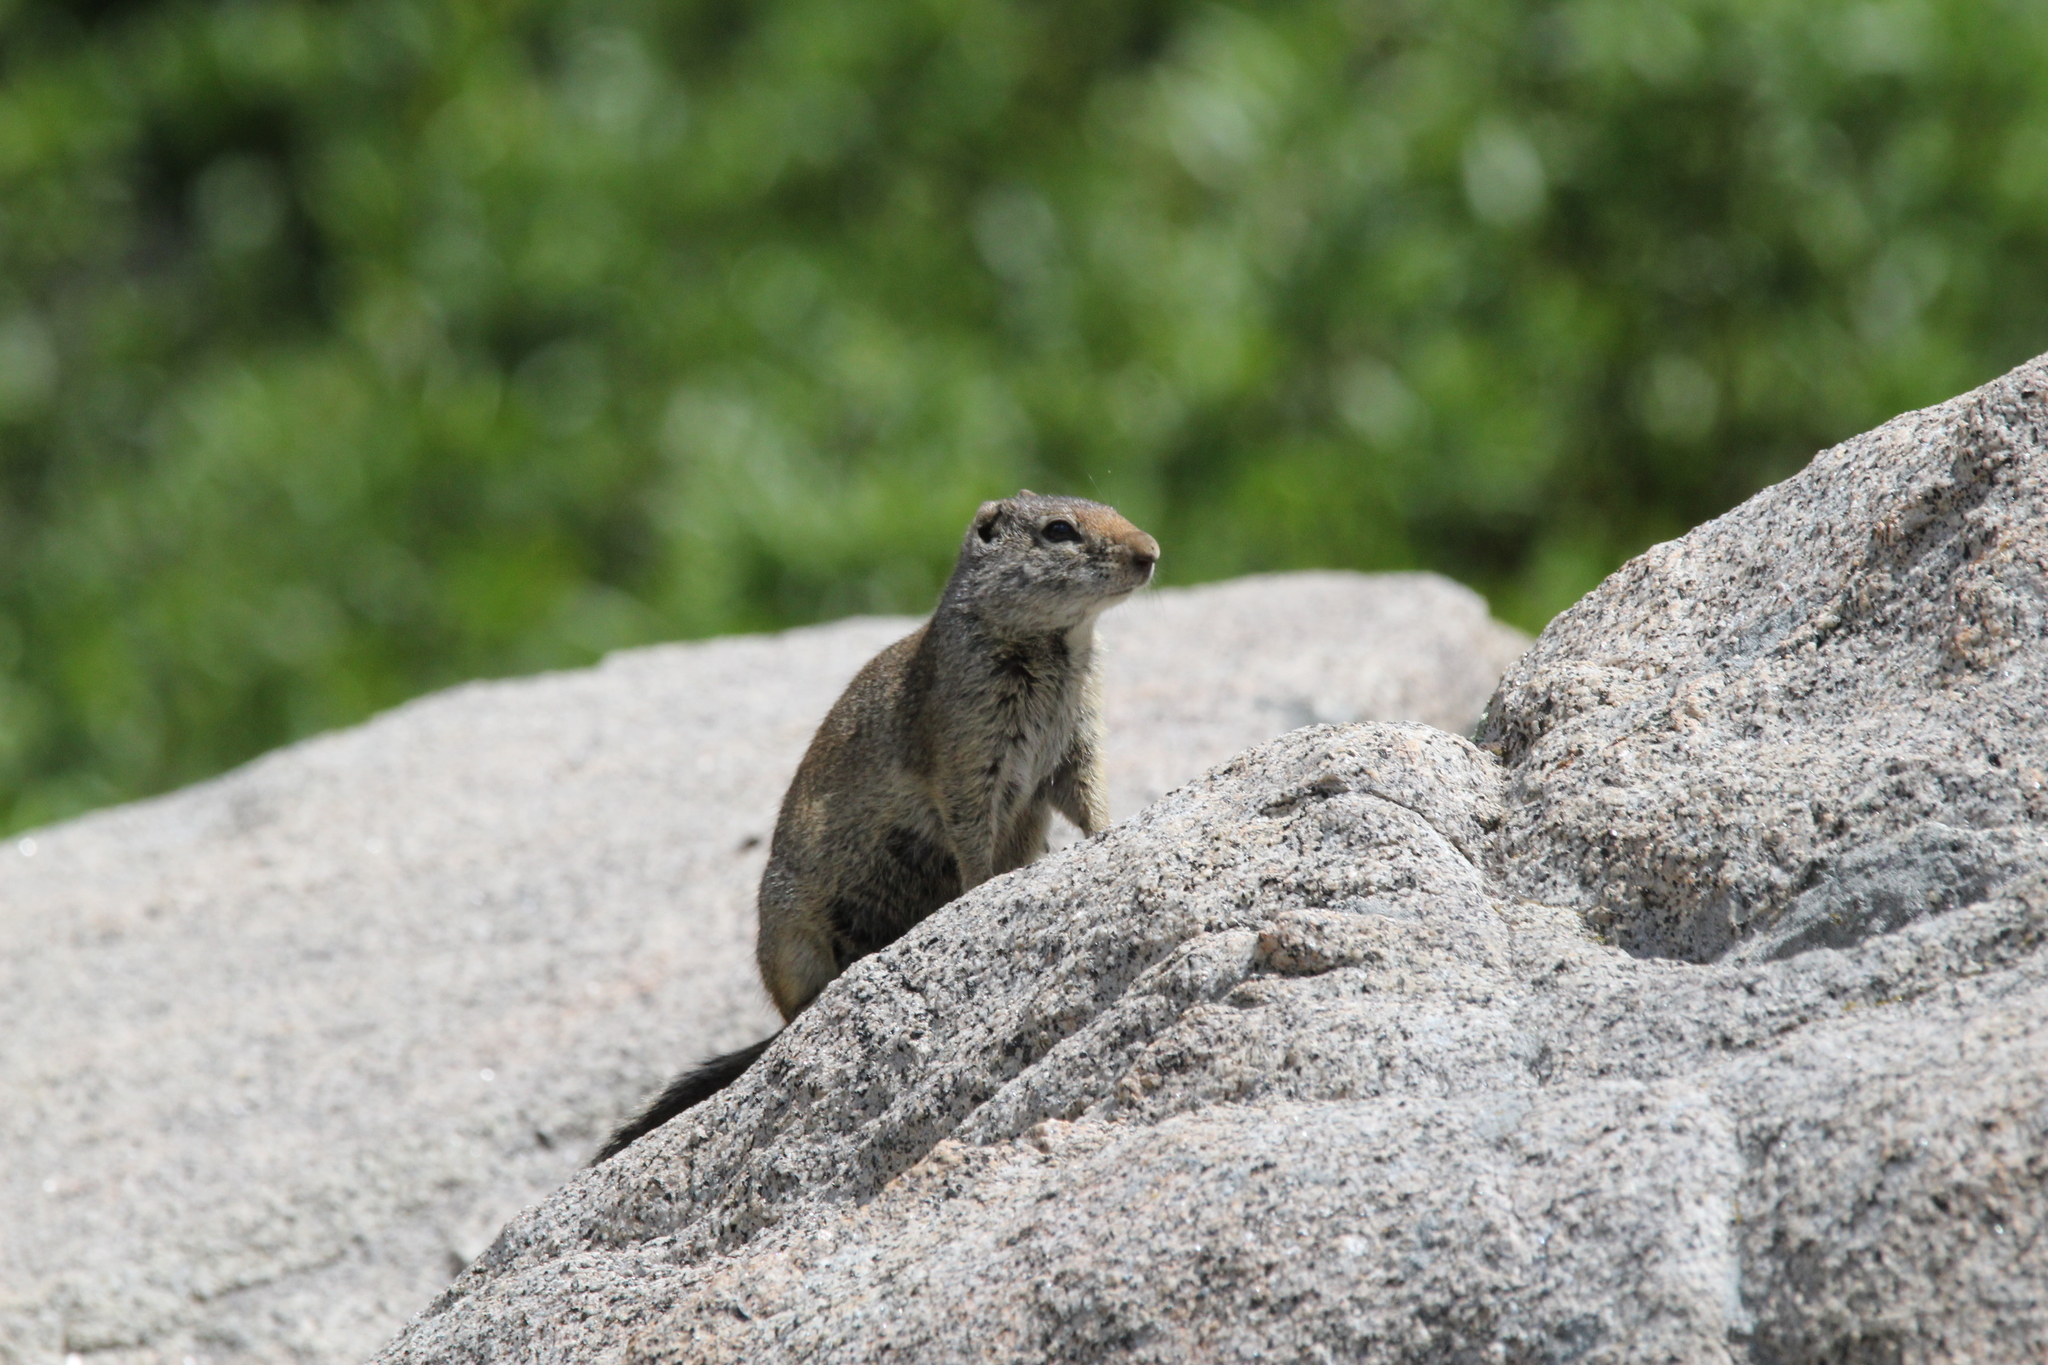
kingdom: Animalia
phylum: Chordata
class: Mammalia
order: Rodentia
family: Sciuridae
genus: Urocitellus
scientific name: Urocitellus armatus
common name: Uinta ground squirrel
